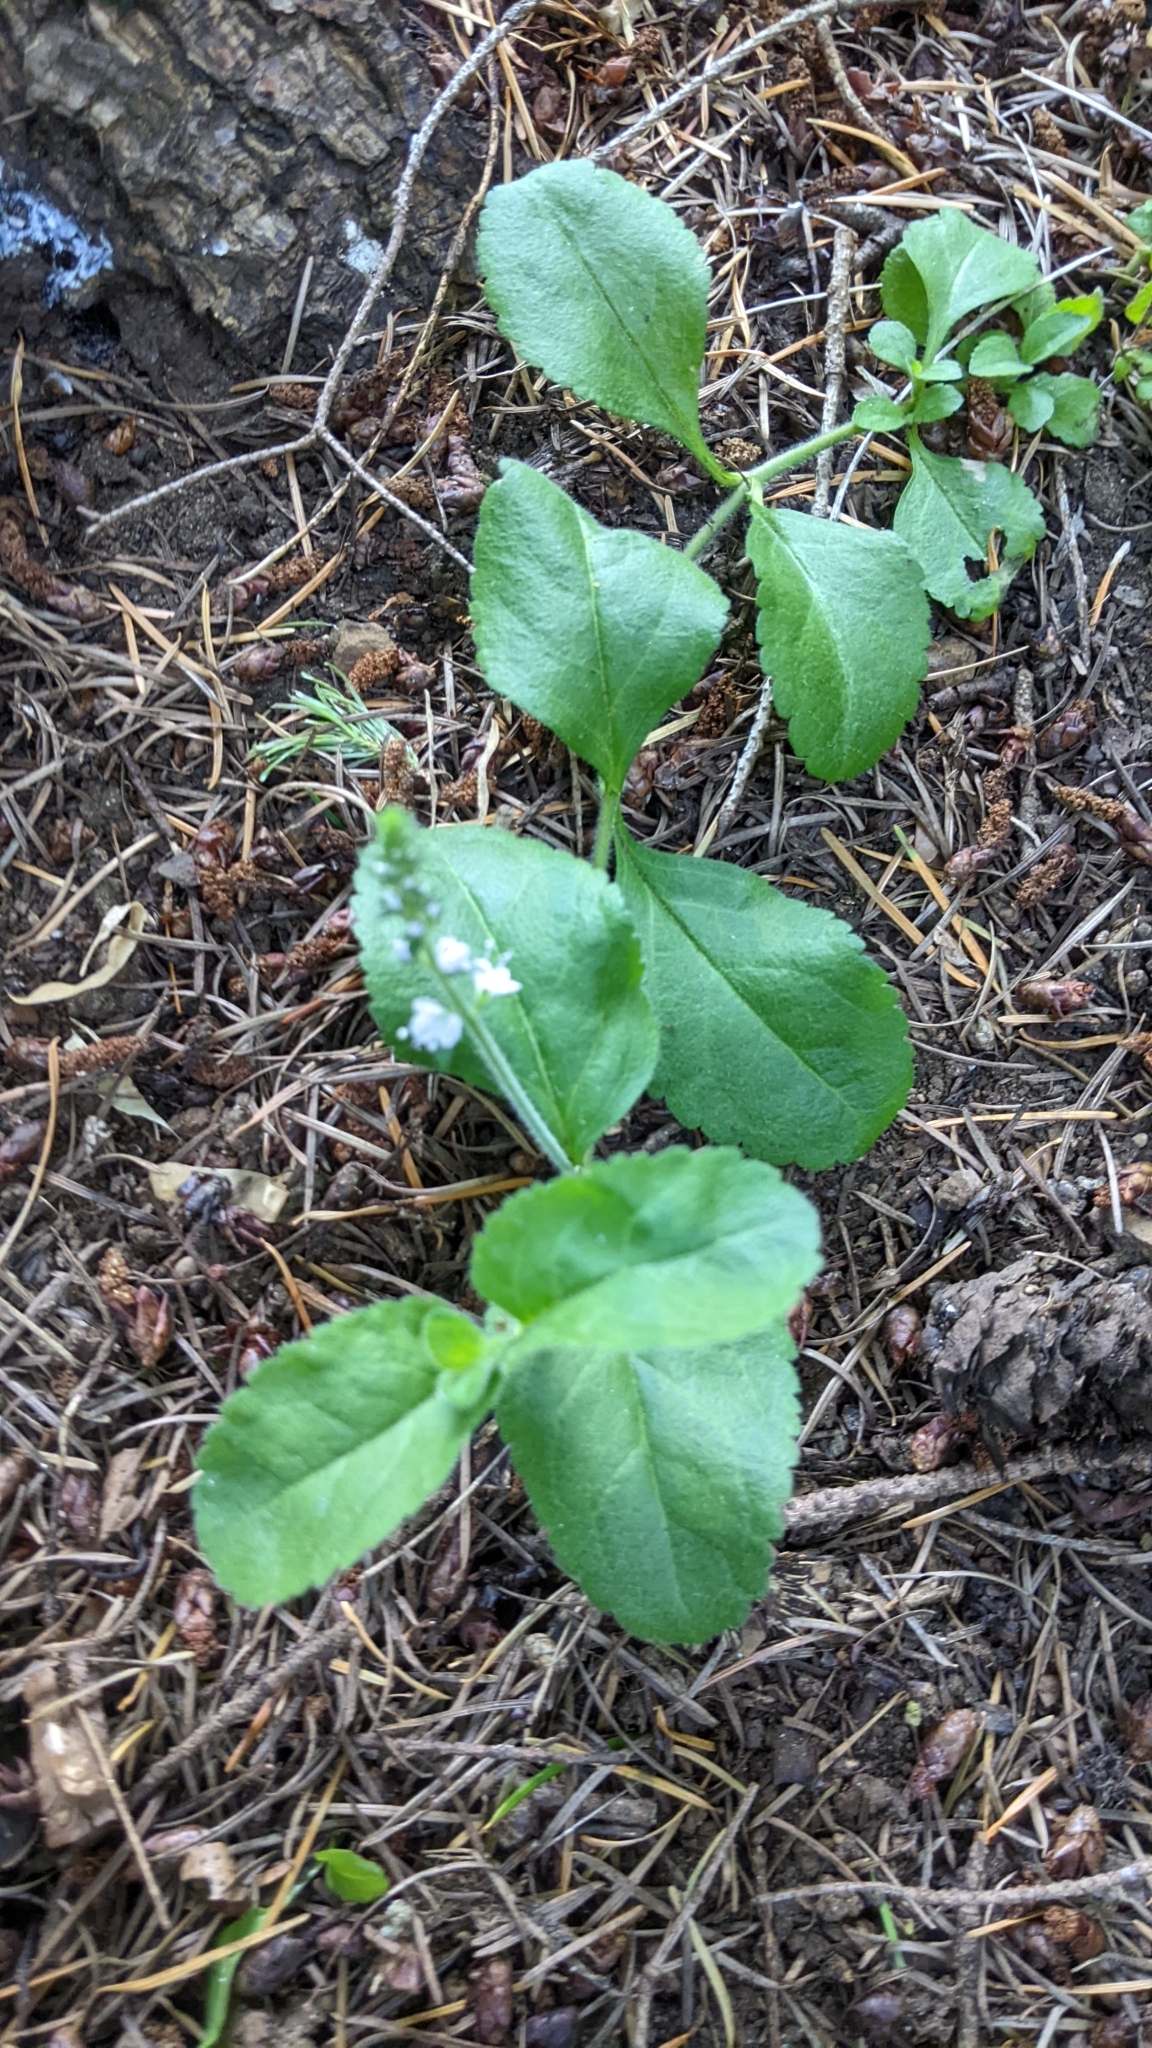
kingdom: Plantae
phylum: Tracheophyta
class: Magnoliopsida
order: Lamiales
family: Plantaginaceae
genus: Veronica
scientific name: Veronica officinalis
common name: Common speedwell
